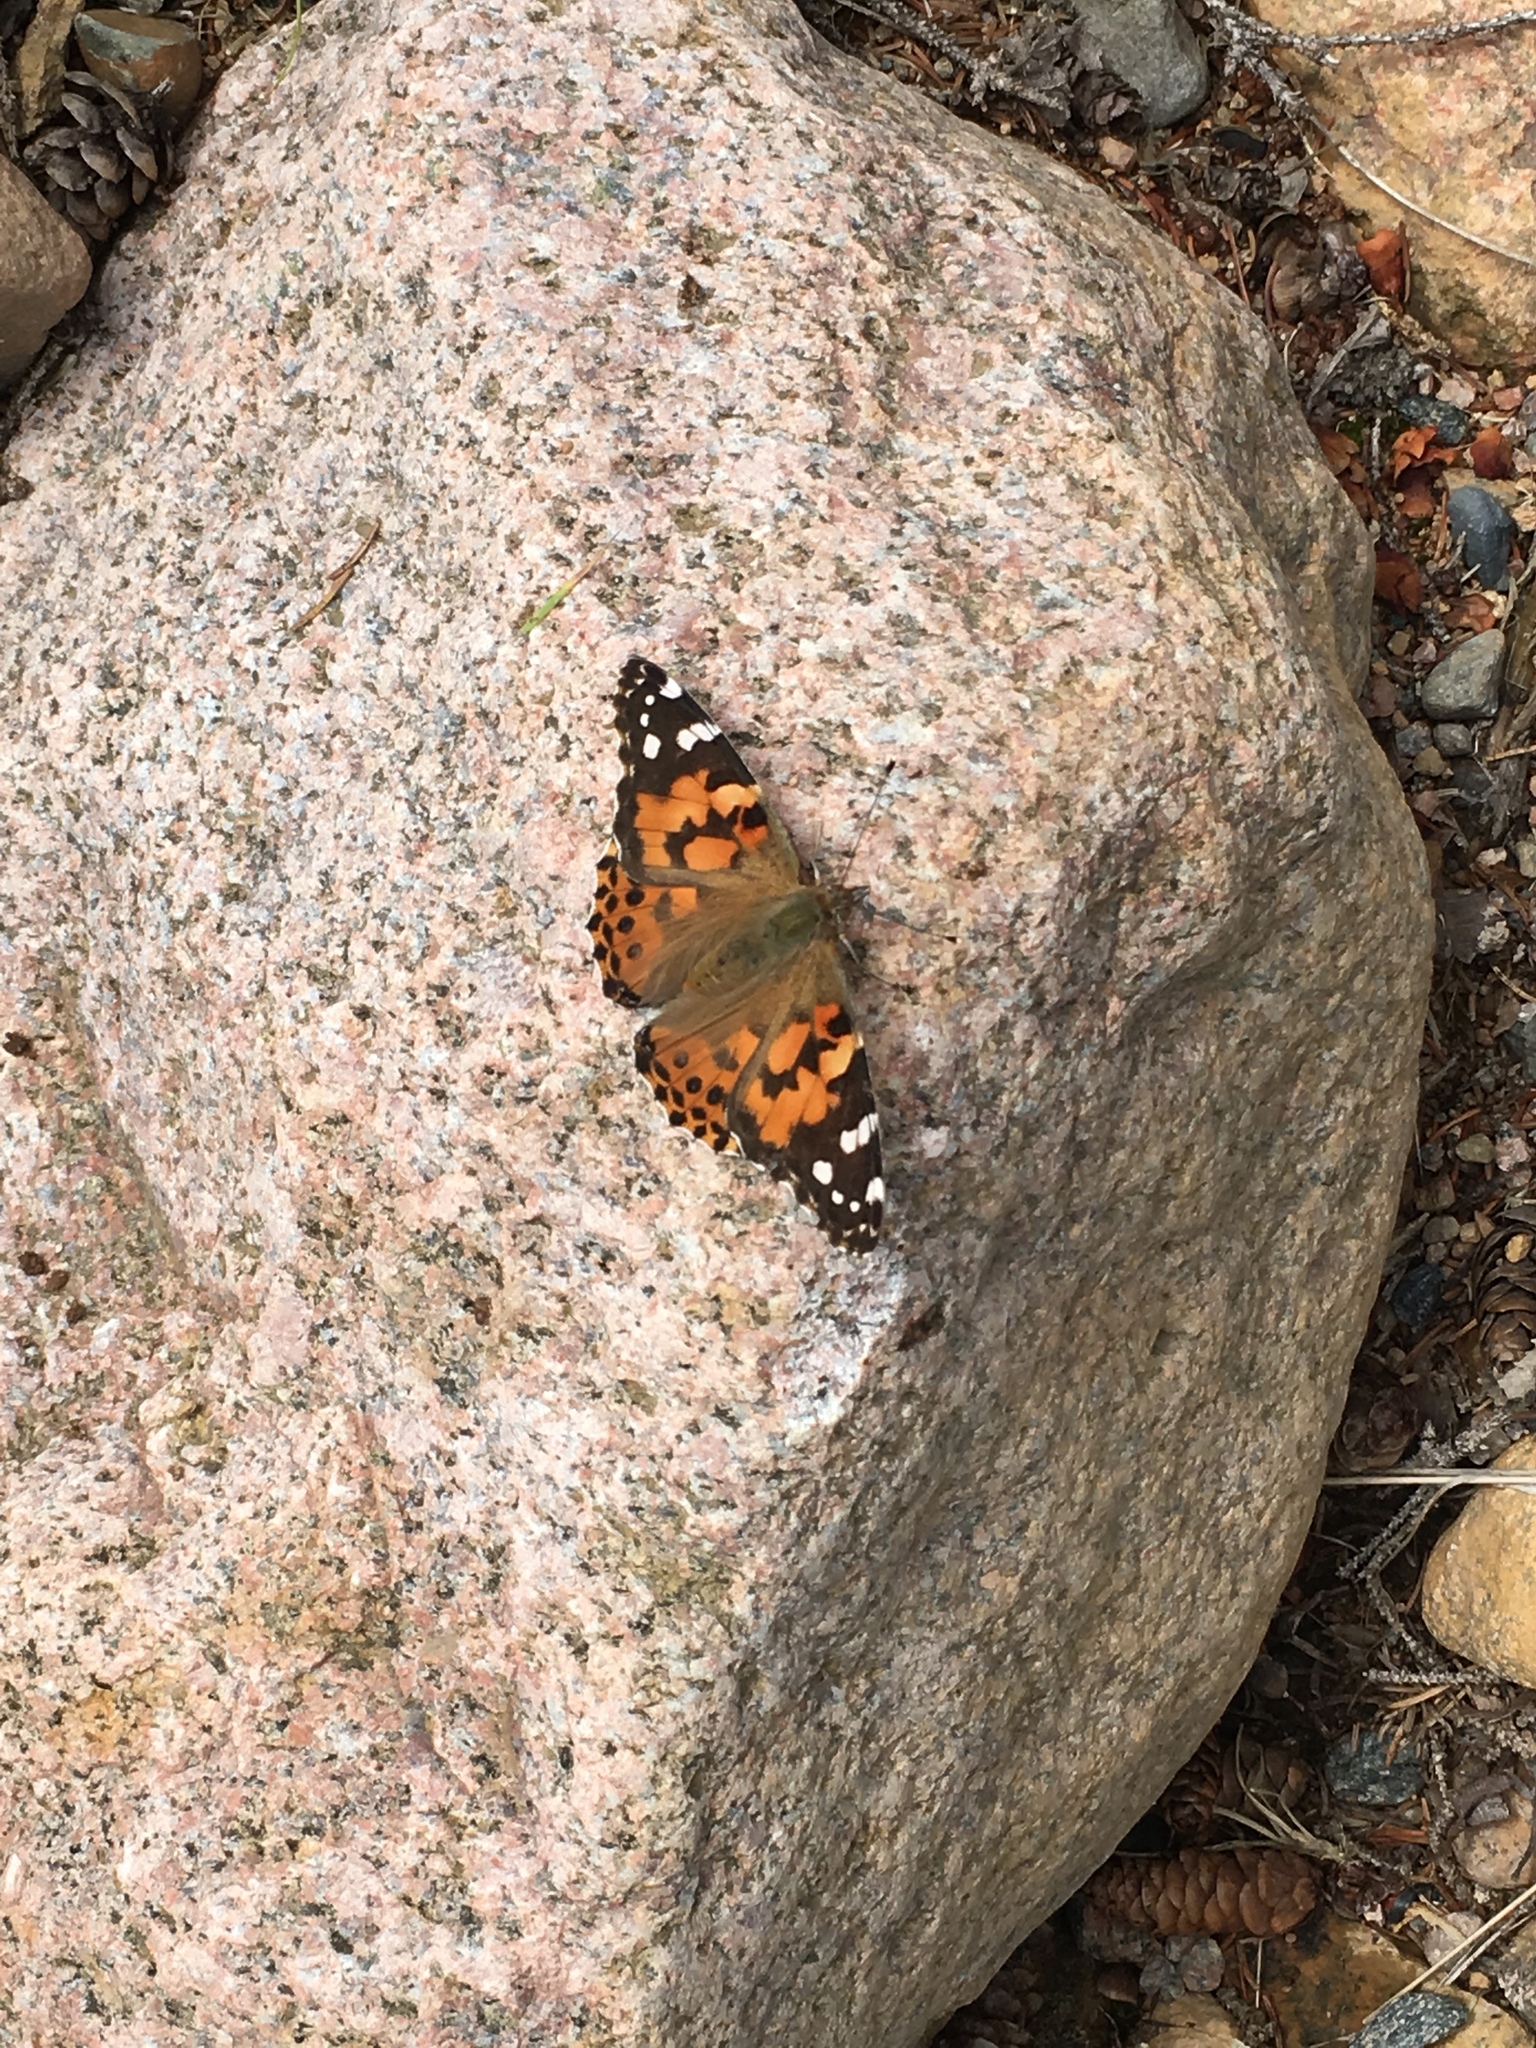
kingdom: Animalia
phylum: Arthropoda
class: Insecta
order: Lepidoptera
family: Nymphalidae
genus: Vanessa
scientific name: Vanessa cardui
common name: Painted lady
